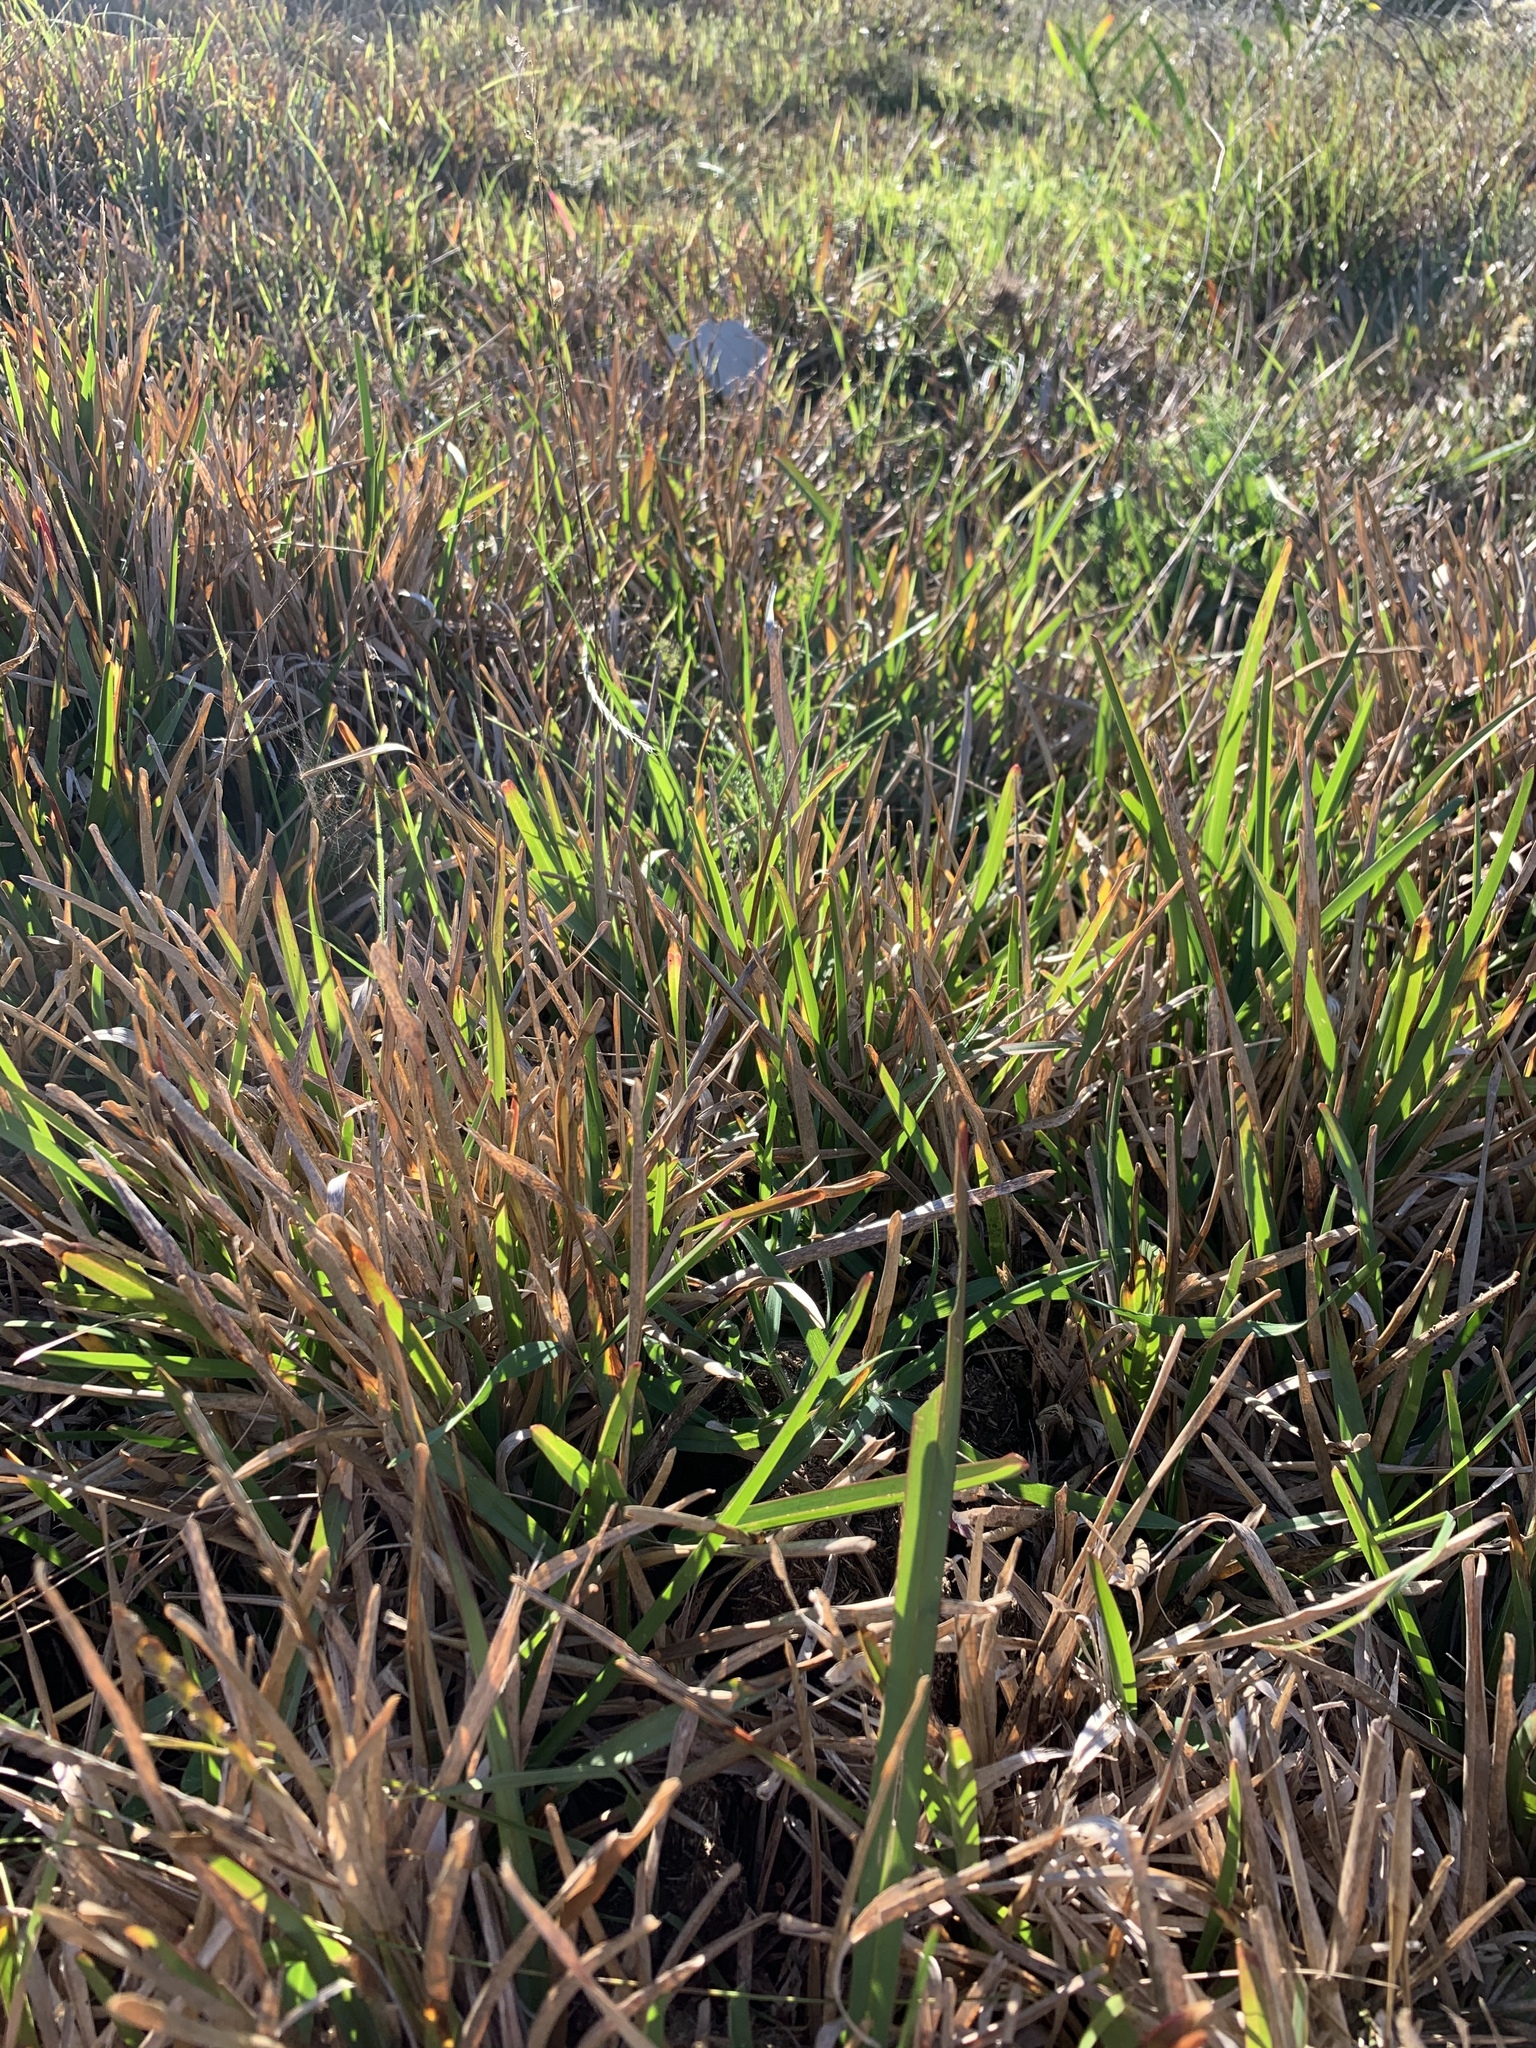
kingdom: Plantae
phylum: Tracheophyta
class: Liliopsida
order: Poales
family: Poaceae
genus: Stenotaphrum
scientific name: Stenotaphrum secundatum
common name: St. augustine grass
